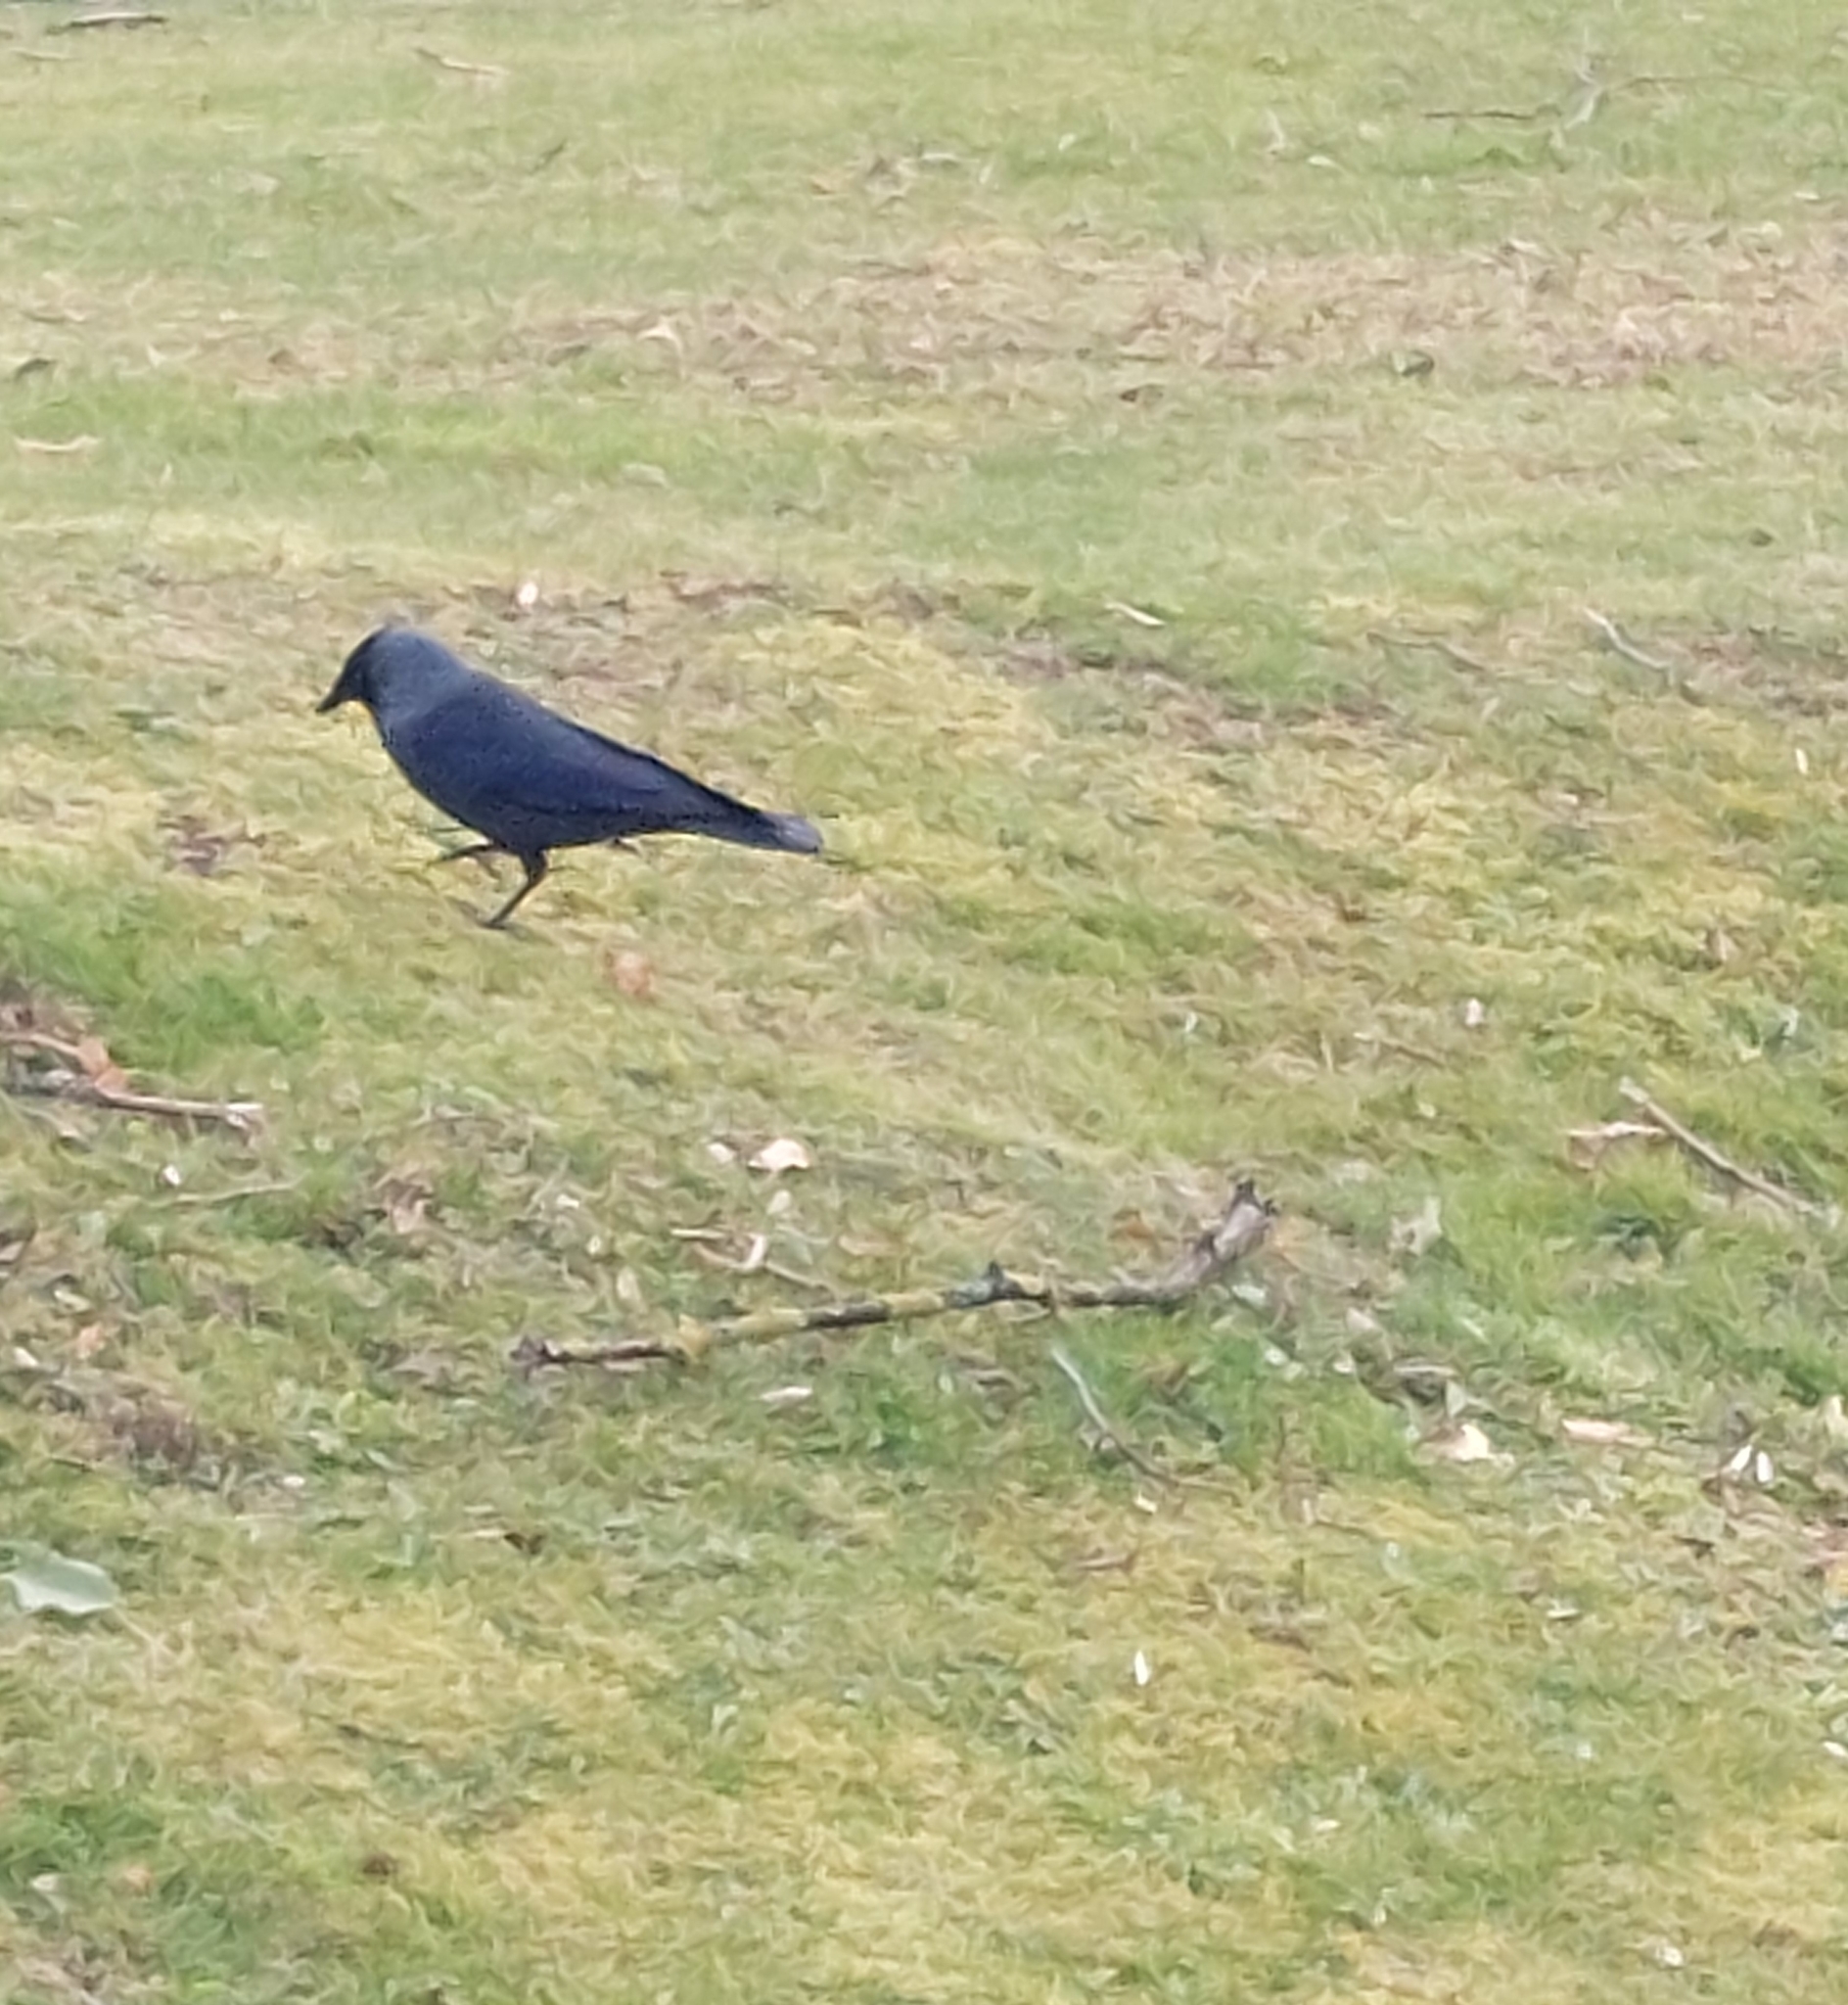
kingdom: Animalia
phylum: Chordata
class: Aves
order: Passeriformes
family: Corvidae
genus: Coloeus
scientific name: Coloeus monedula
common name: Western jackdaw
